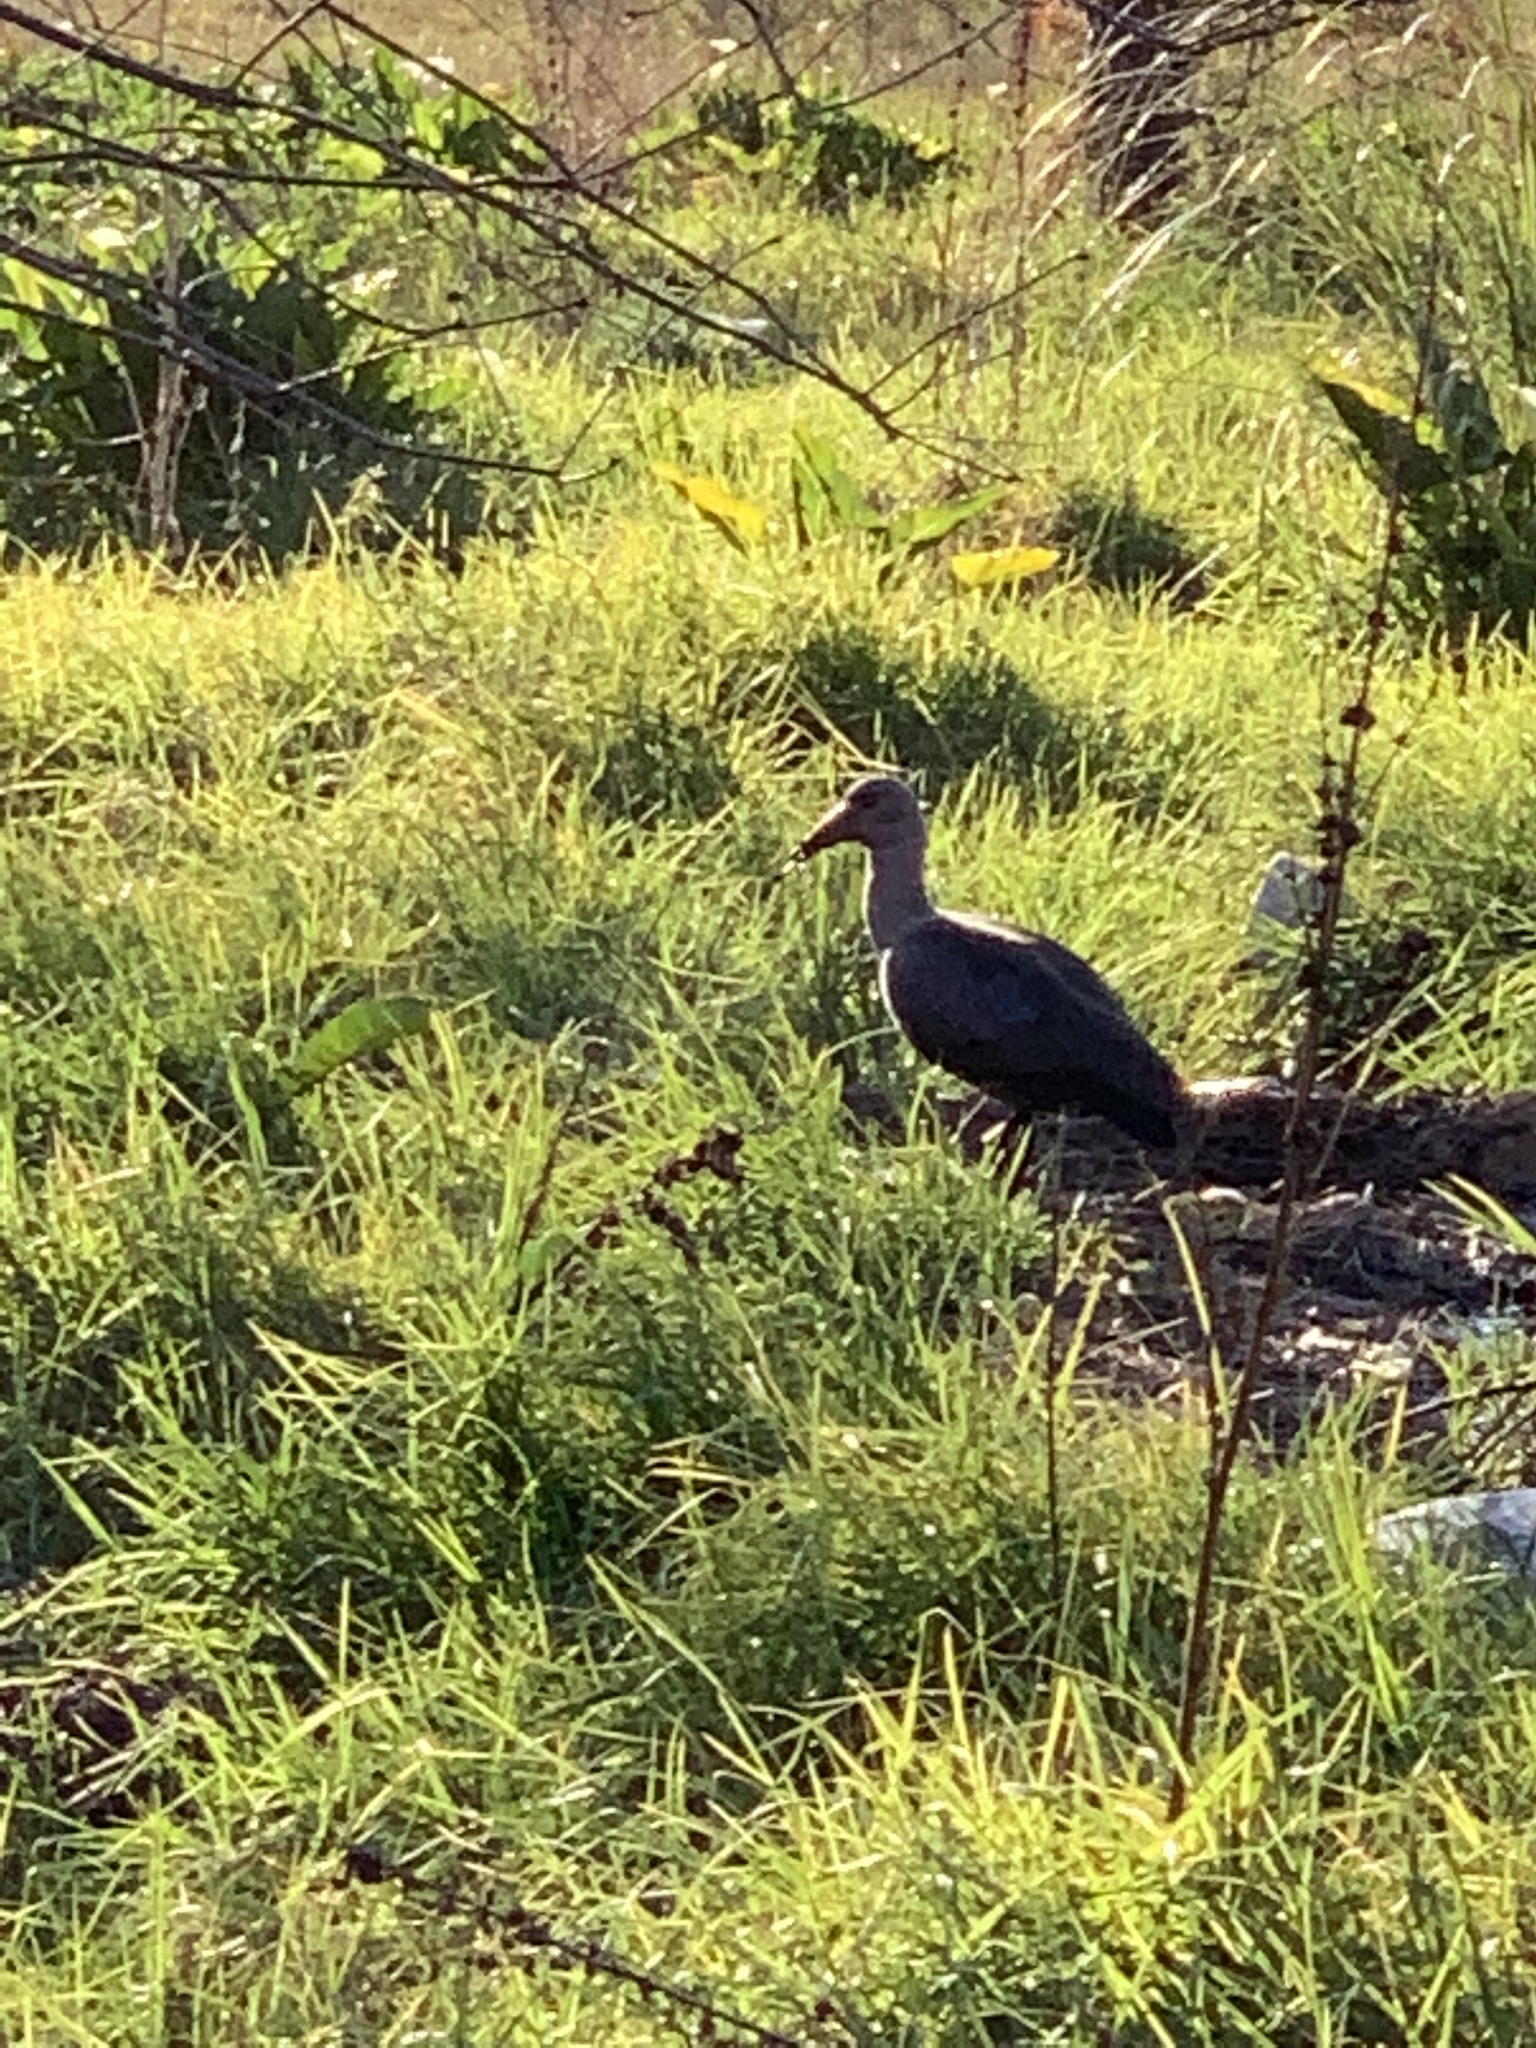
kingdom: Animalia
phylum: Chordata
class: Aves
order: Pelecaniformes
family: Threskiornithidae
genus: Bostrychia
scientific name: Bostrychia hagedash
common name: Hadada ibis
